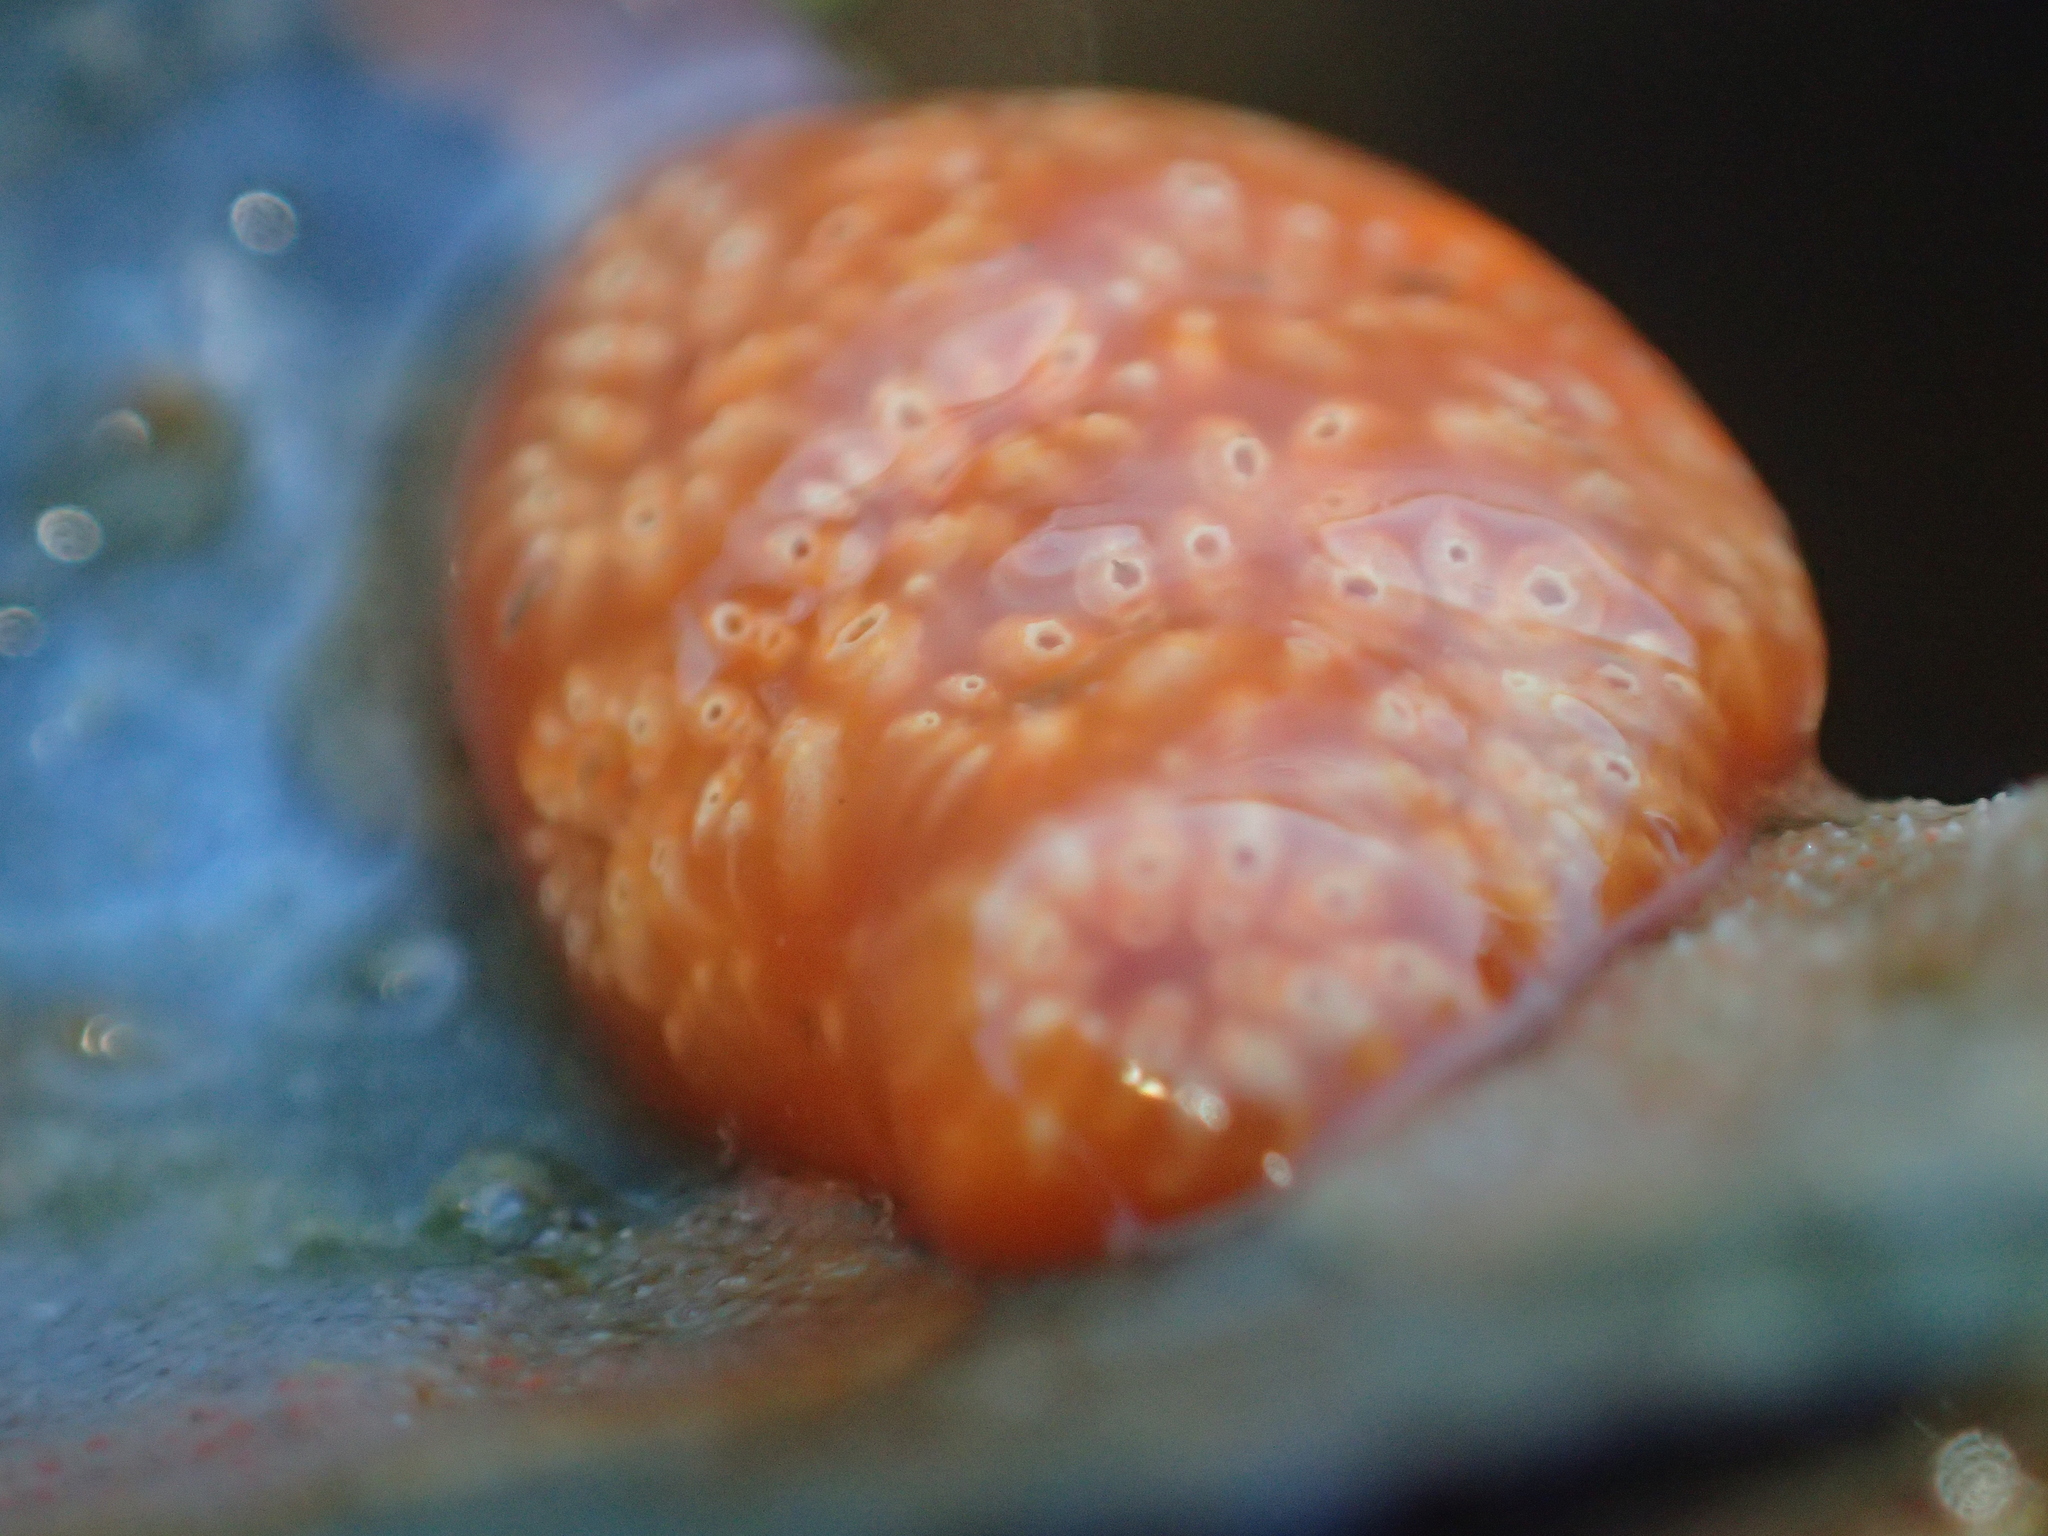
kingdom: Animalia
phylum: Chordata
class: Ascidiacea
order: Aplousobranchia
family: Polyclinidae
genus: Aplidium
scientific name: Aplidium benhami
